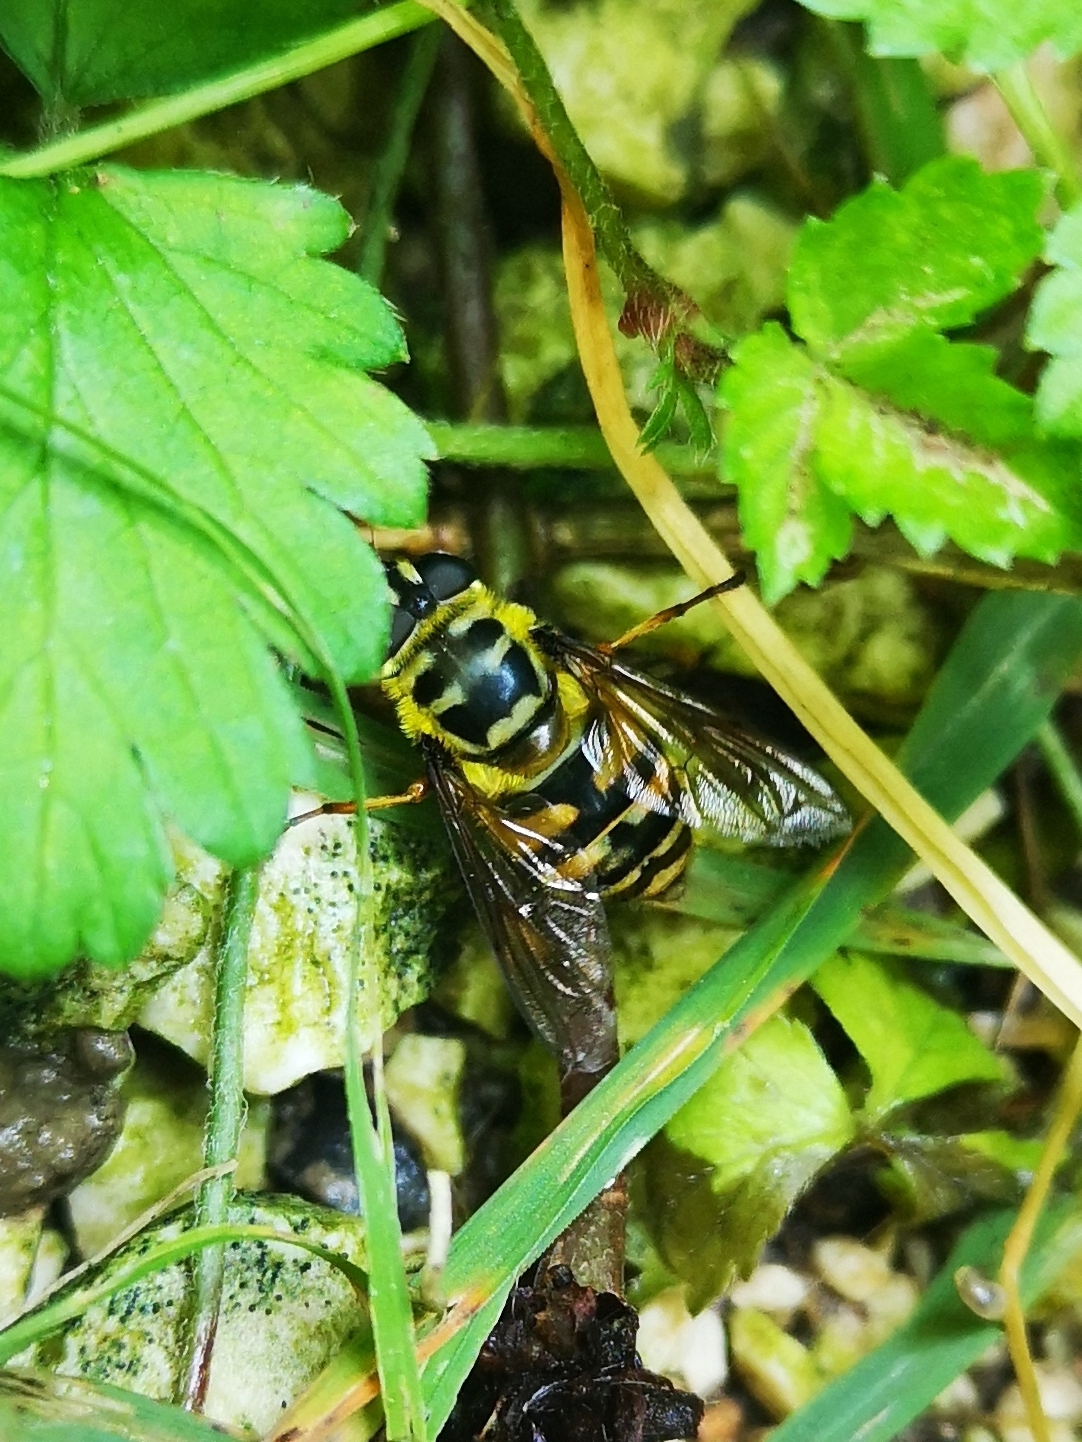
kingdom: Animalia
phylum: Arthropoda
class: Insecta
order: Diptera
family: Syrphidae
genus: Myathropa
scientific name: Myathropa florea
